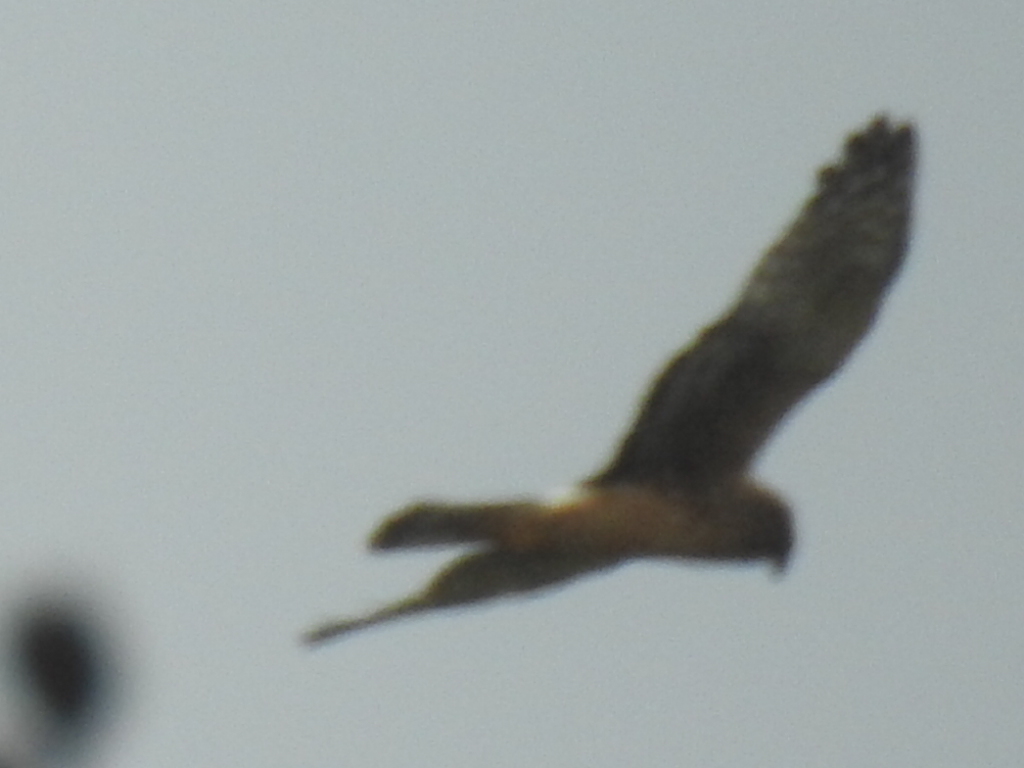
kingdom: Animalia
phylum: Chordata
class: Aves
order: Accipitriformes
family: Accipitridae
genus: Circus
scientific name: Circus cyaneus
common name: Hen harrier
